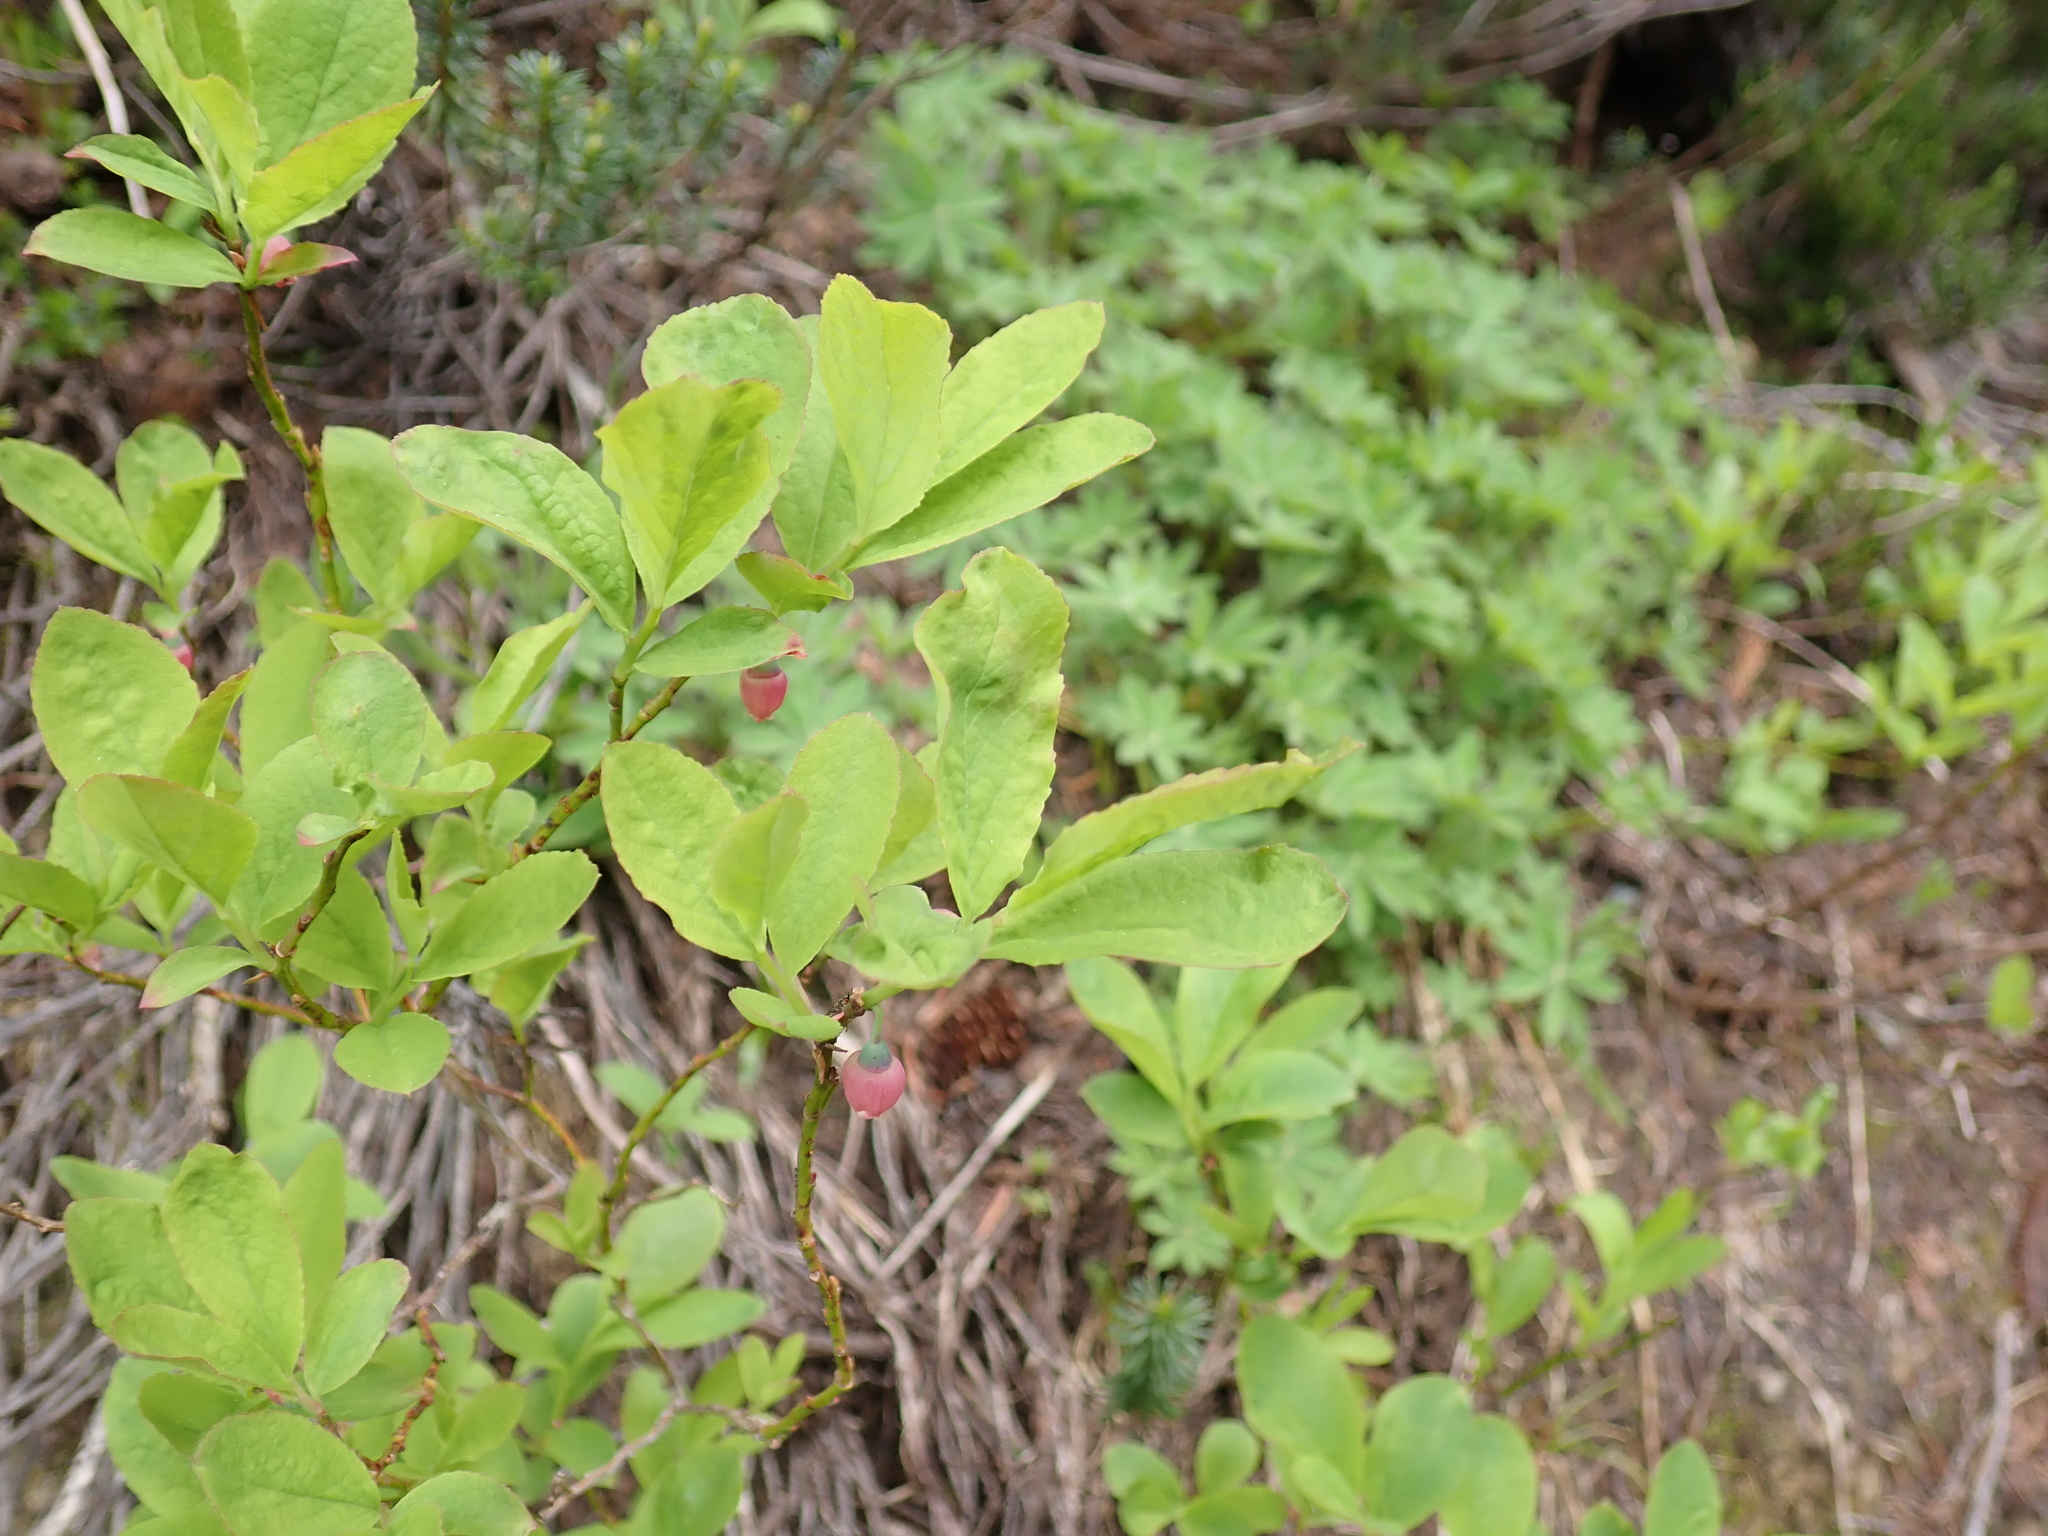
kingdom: Plantae
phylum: Tracheophyta
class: Magnoliopsida
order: Ericales
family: Ericaceae
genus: Vaccinium
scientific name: Vaccinium membranaceum
